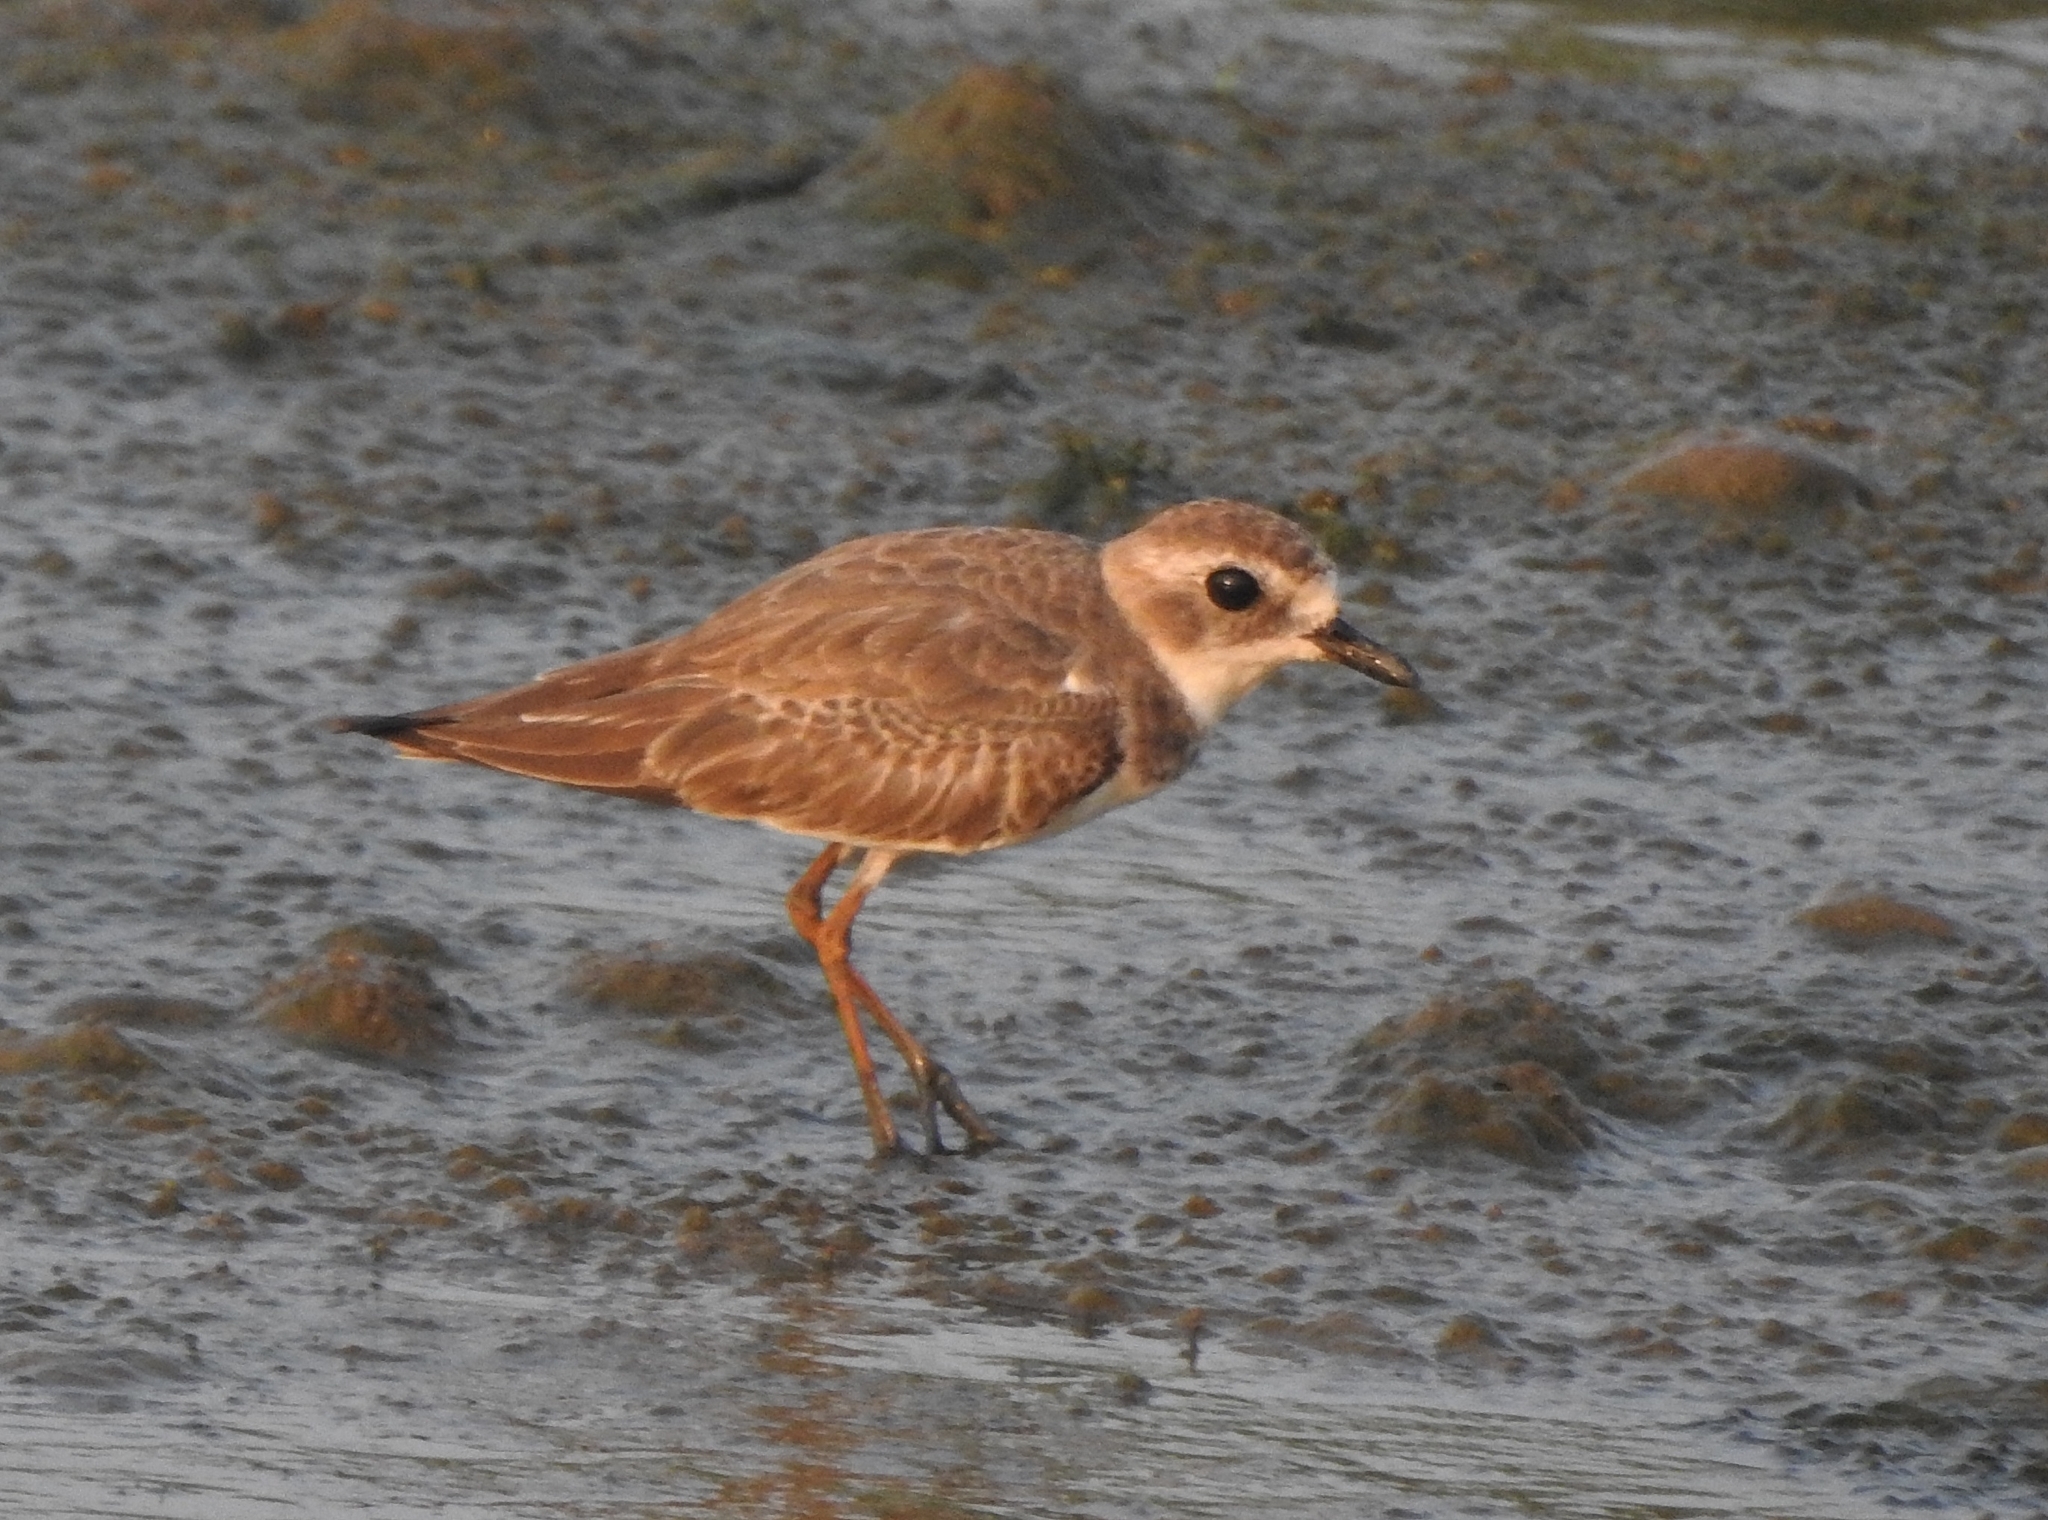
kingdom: Animalia
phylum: Chordata
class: Aves
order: Charadriiformes
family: Charadriidae
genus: Anarhynchus
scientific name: Anarhynchus
